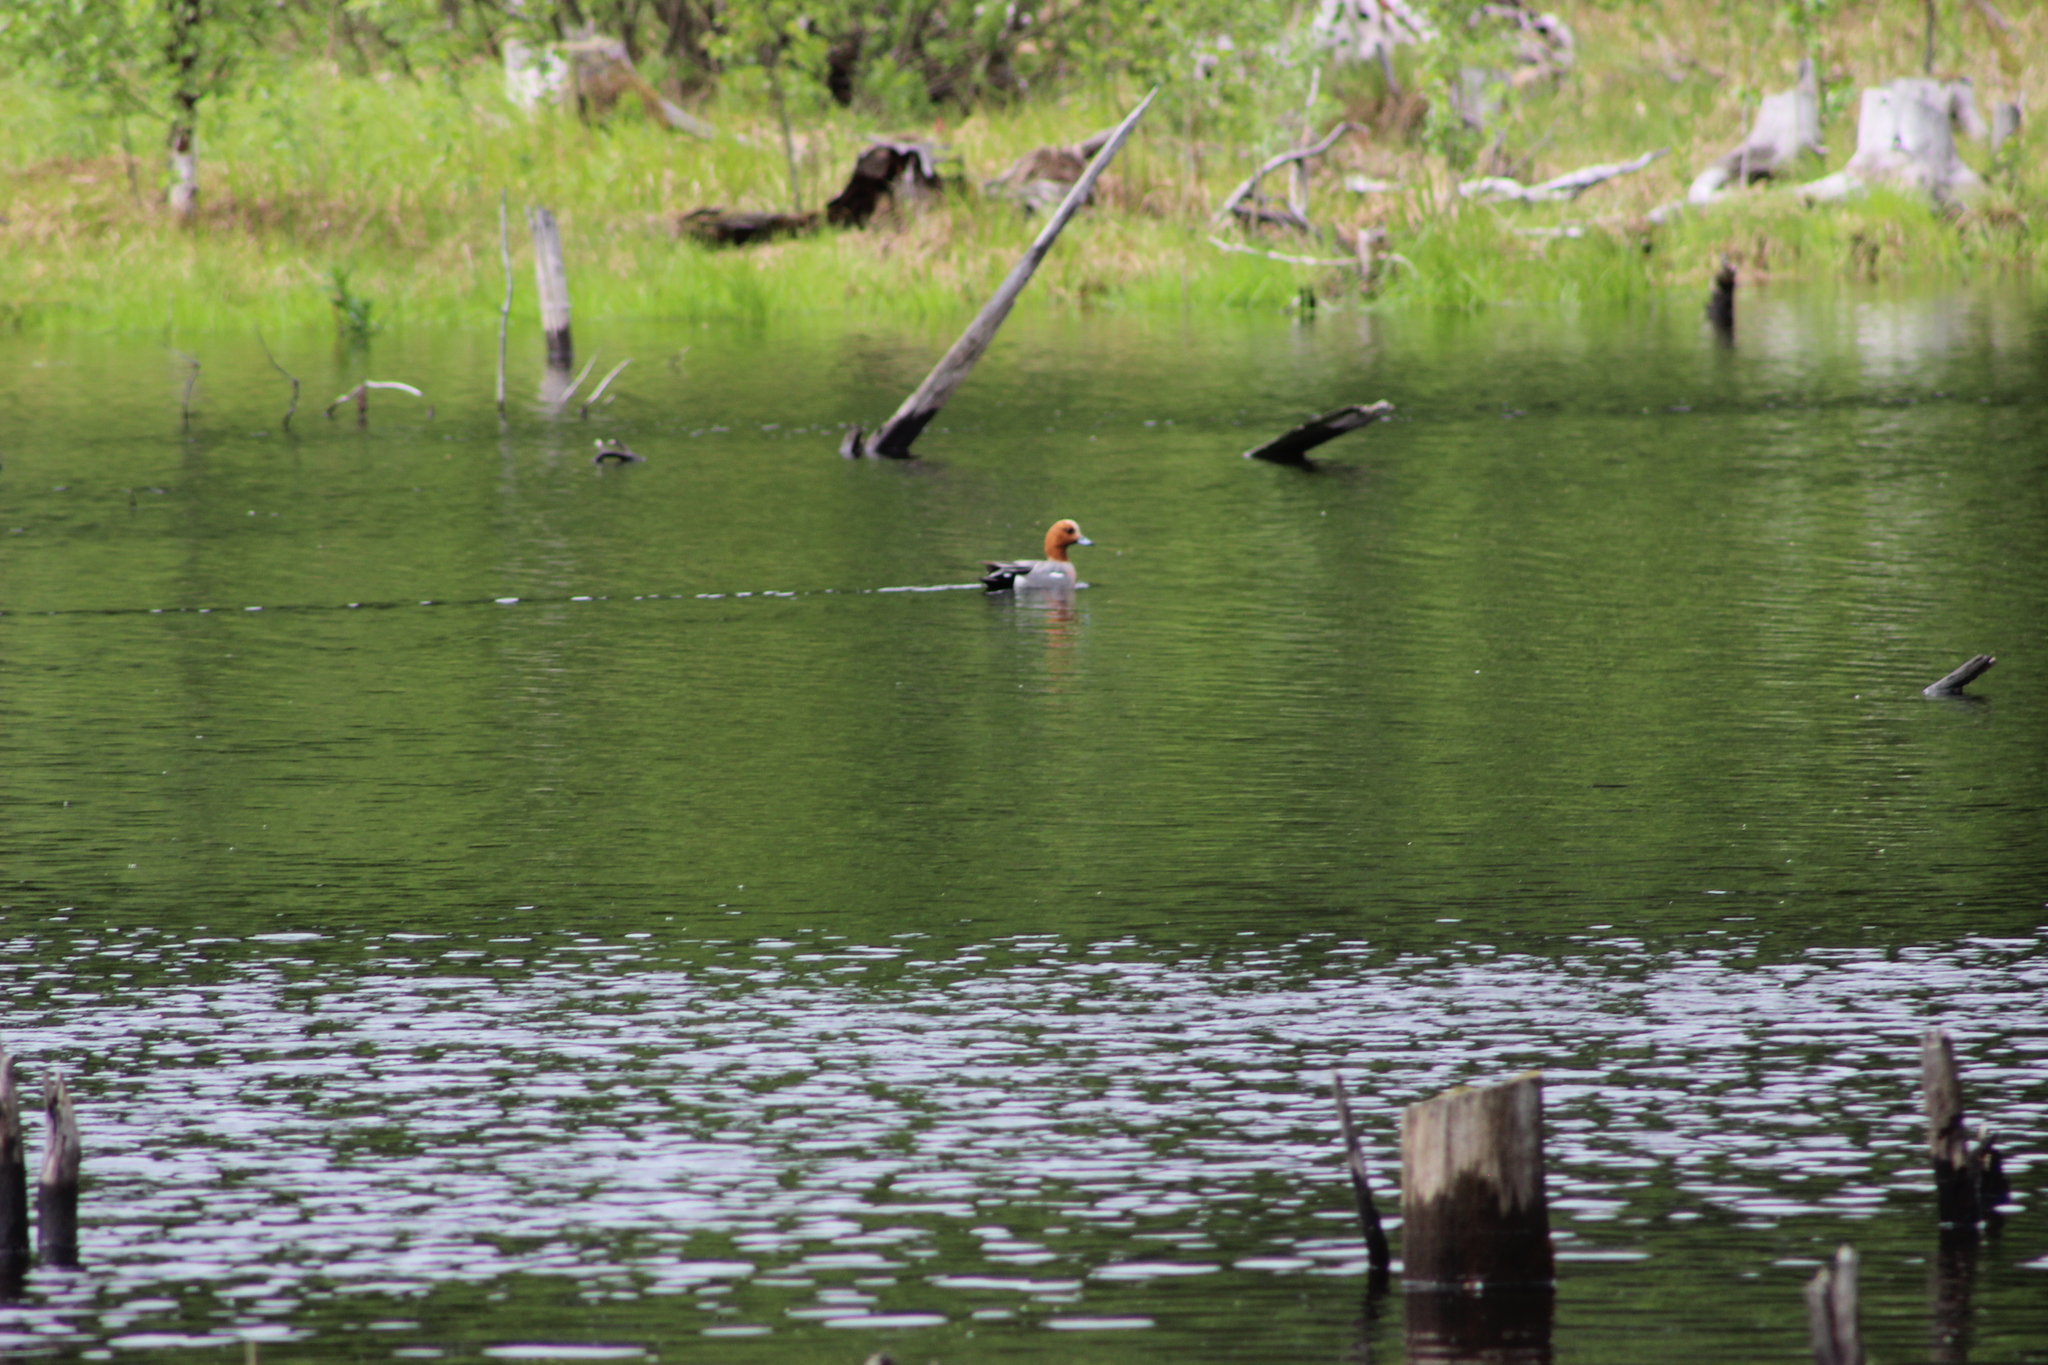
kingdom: Animalia
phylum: Chordata
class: Aves
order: Anseriformes
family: Anatidae
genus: Mareca
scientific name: Mareca penelope
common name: Eurasian wigeon
